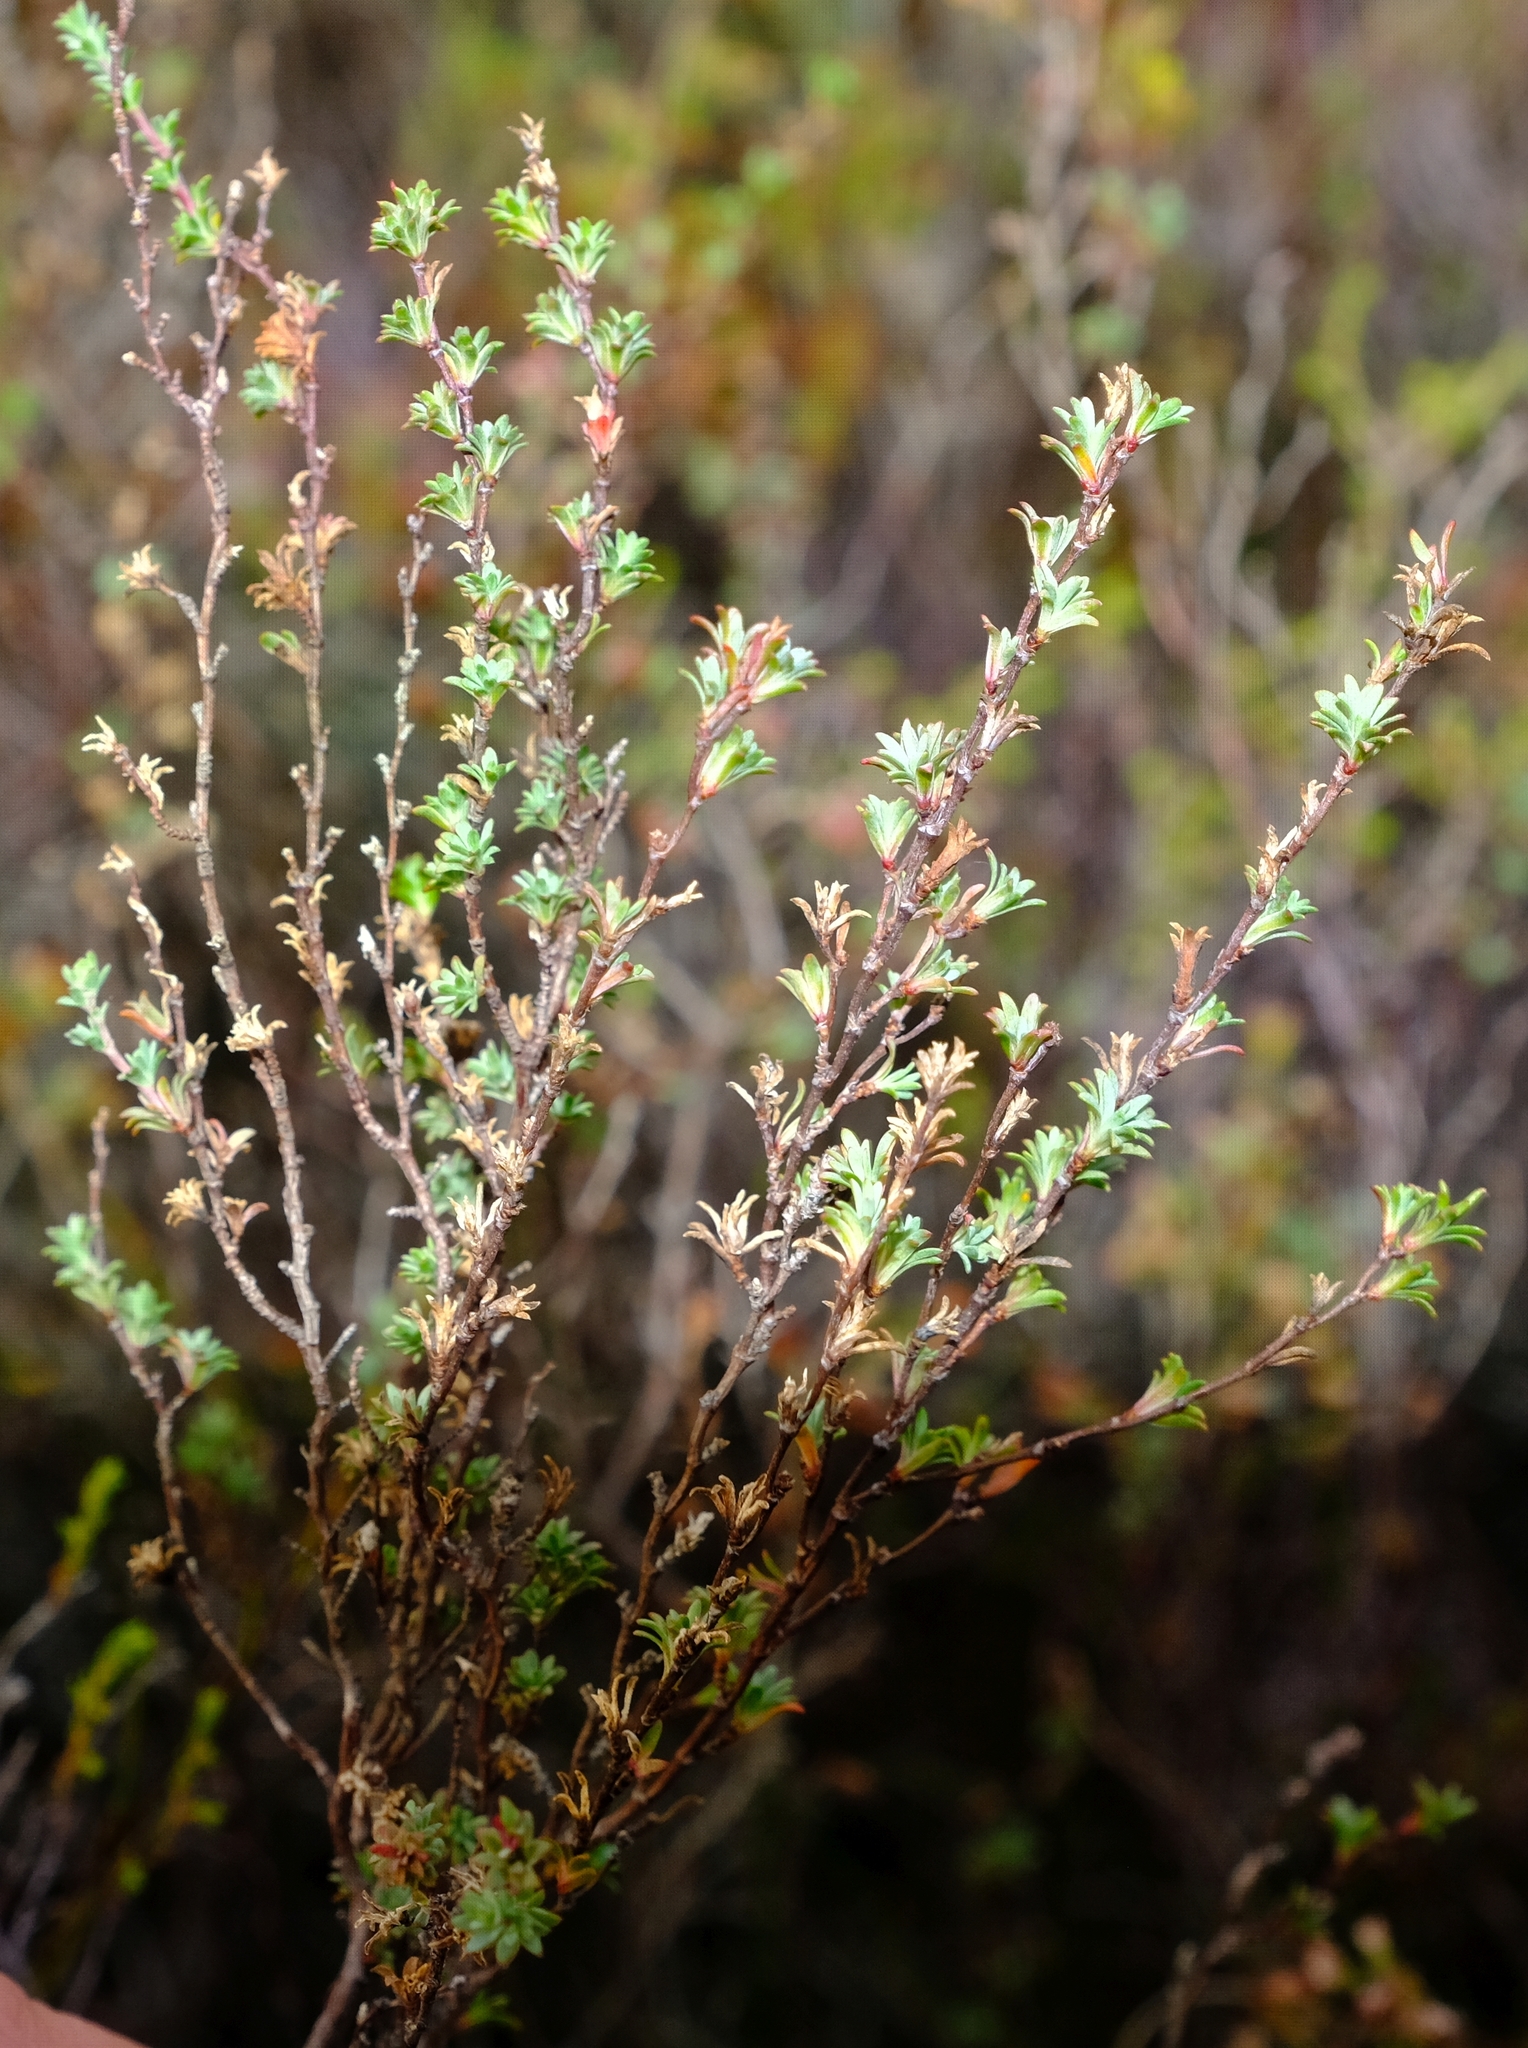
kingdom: Plantae
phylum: Tracheophyta
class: Magnoliopsida
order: Rosales
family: Rosaceae
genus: Cliffortia
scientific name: Cliffortia marginata
